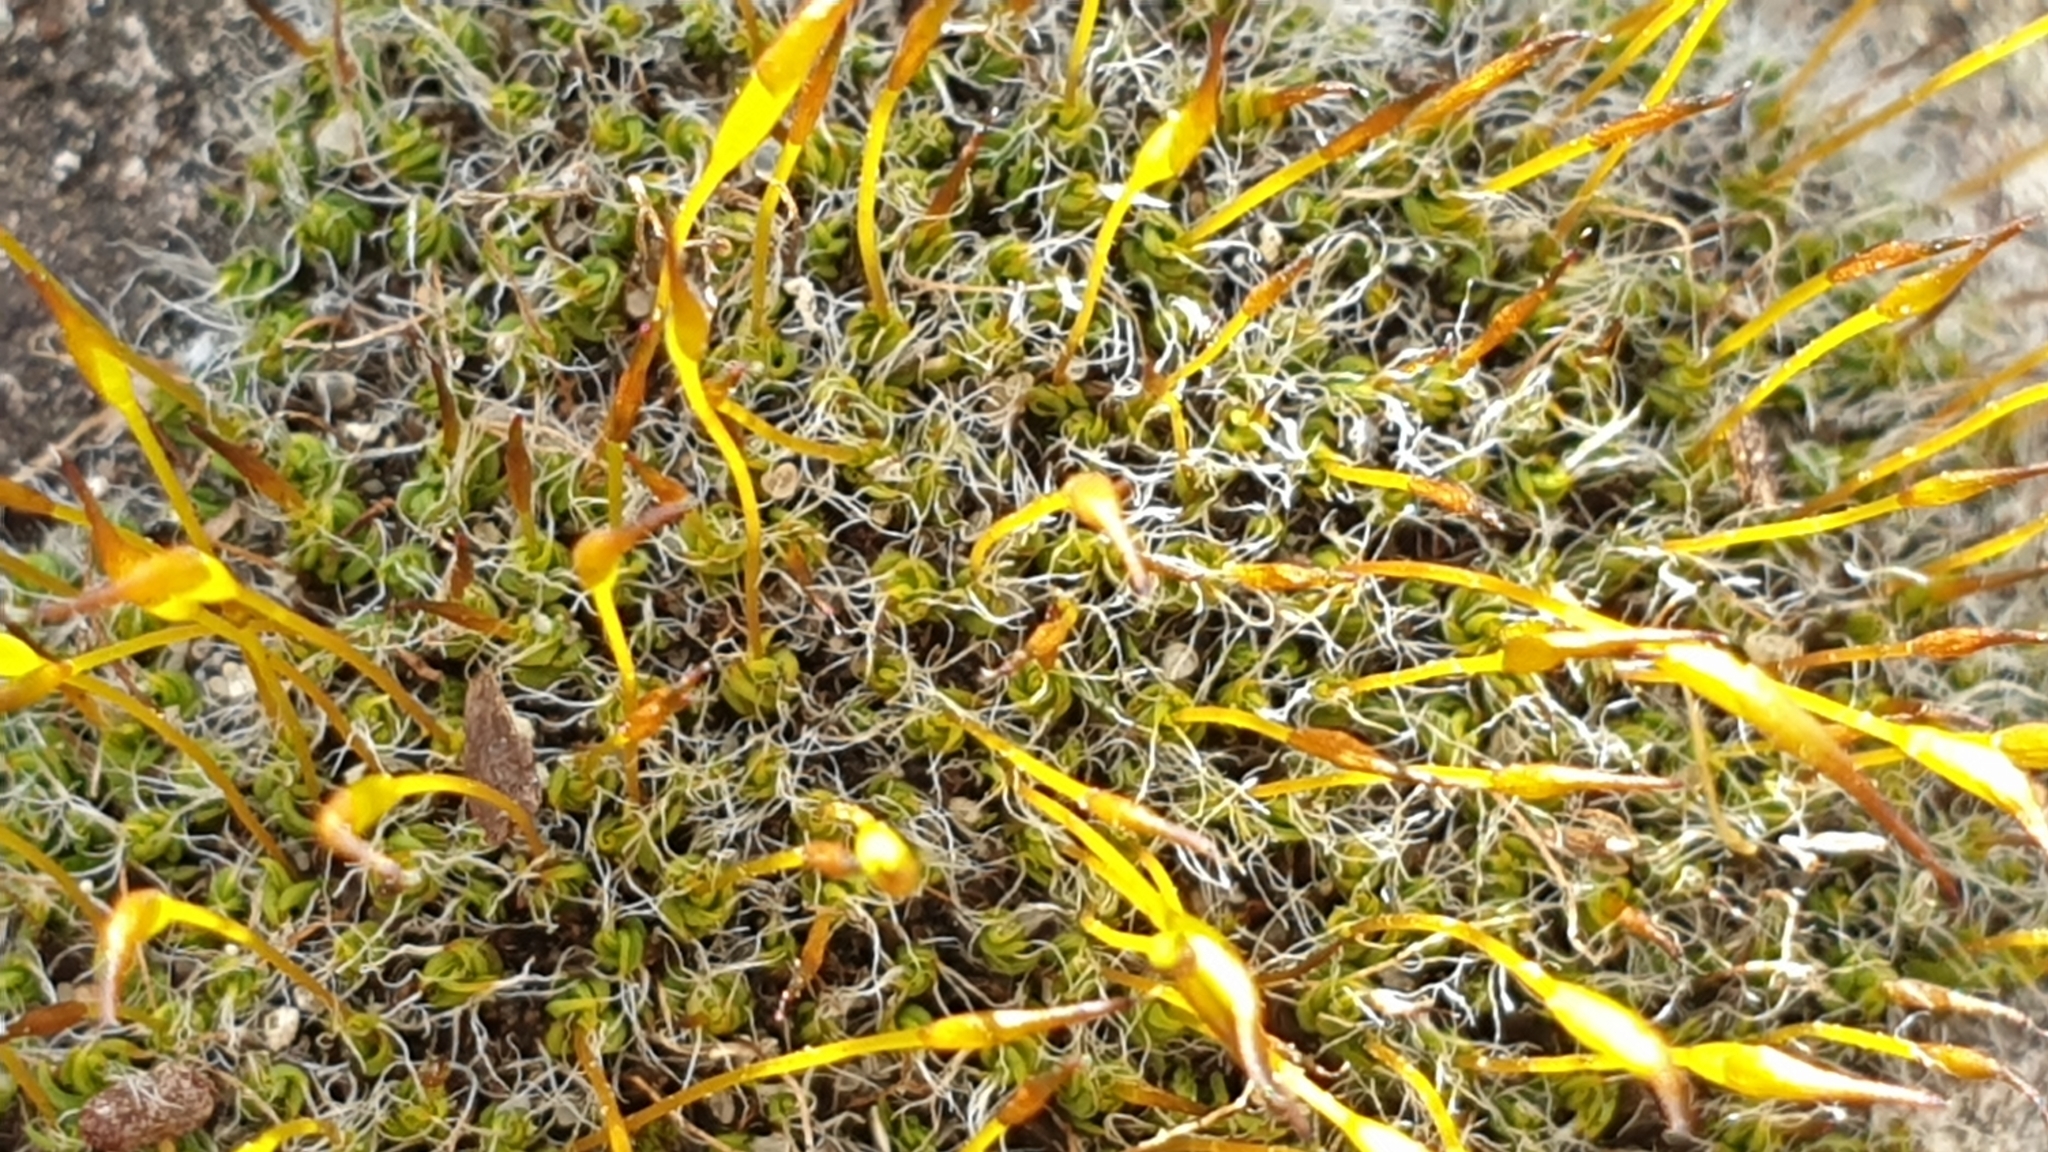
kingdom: Plantae
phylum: Bryophyta
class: Bryopsida
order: Pottiales
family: Pottiaceae
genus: Tortula
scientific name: Tortula muralis
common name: Wall screw-moss
